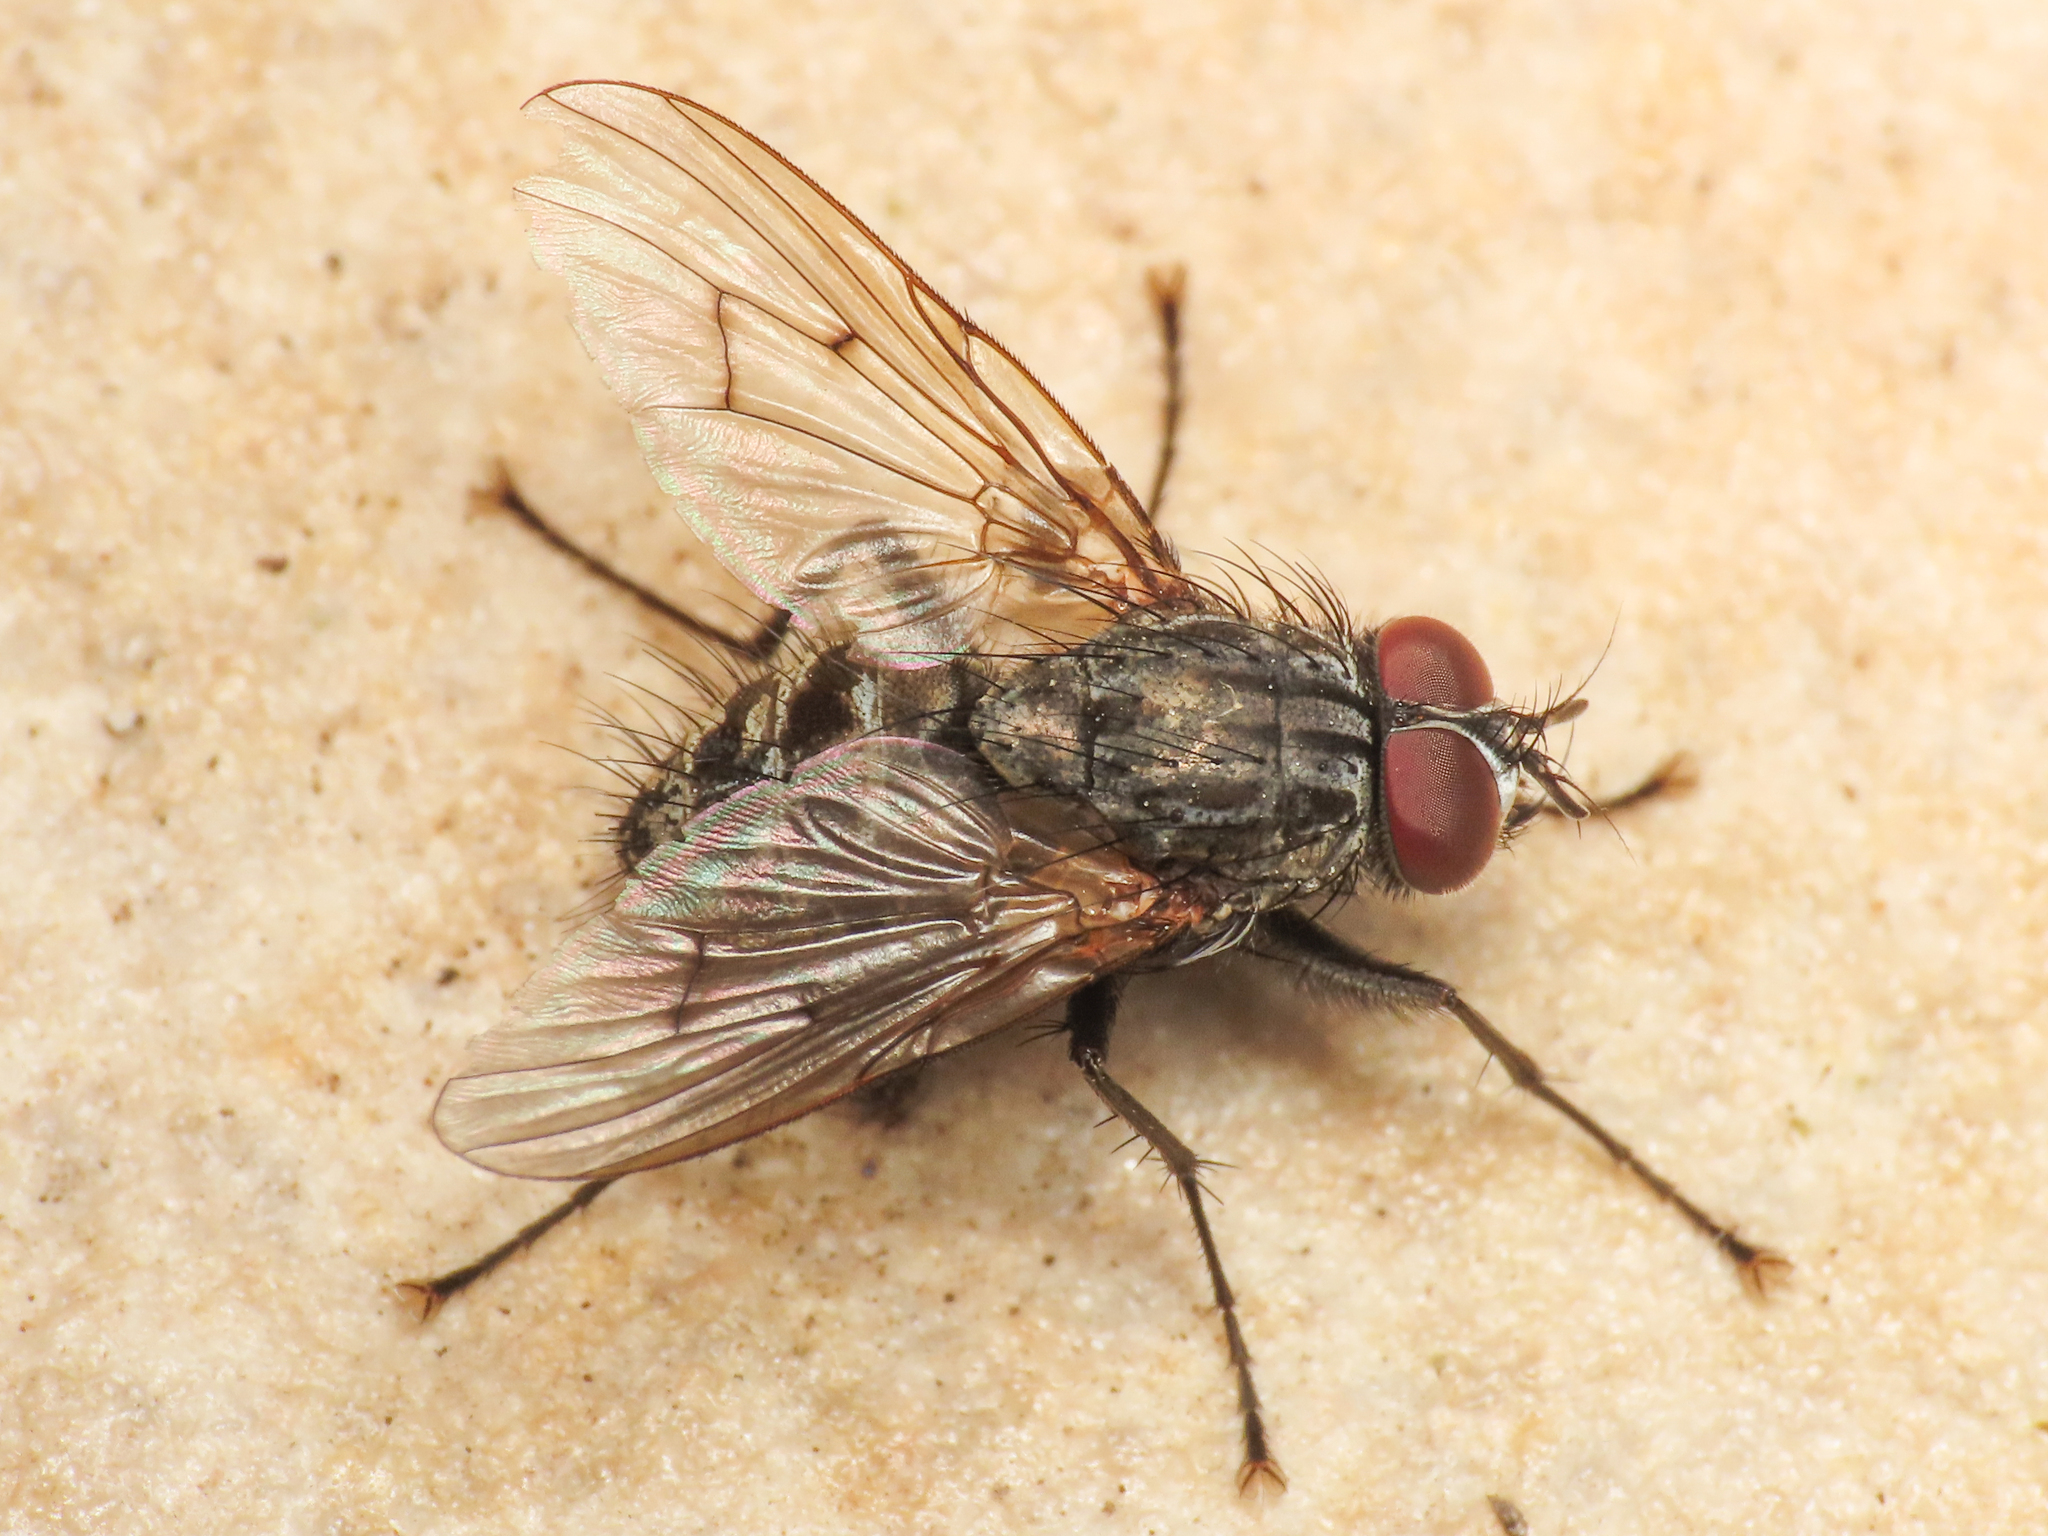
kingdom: Animalia
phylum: Arthropoda
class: Insecta
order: Diptera
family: Muscidae
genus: Helina
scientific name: Helina evecta
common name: Muscid fly
